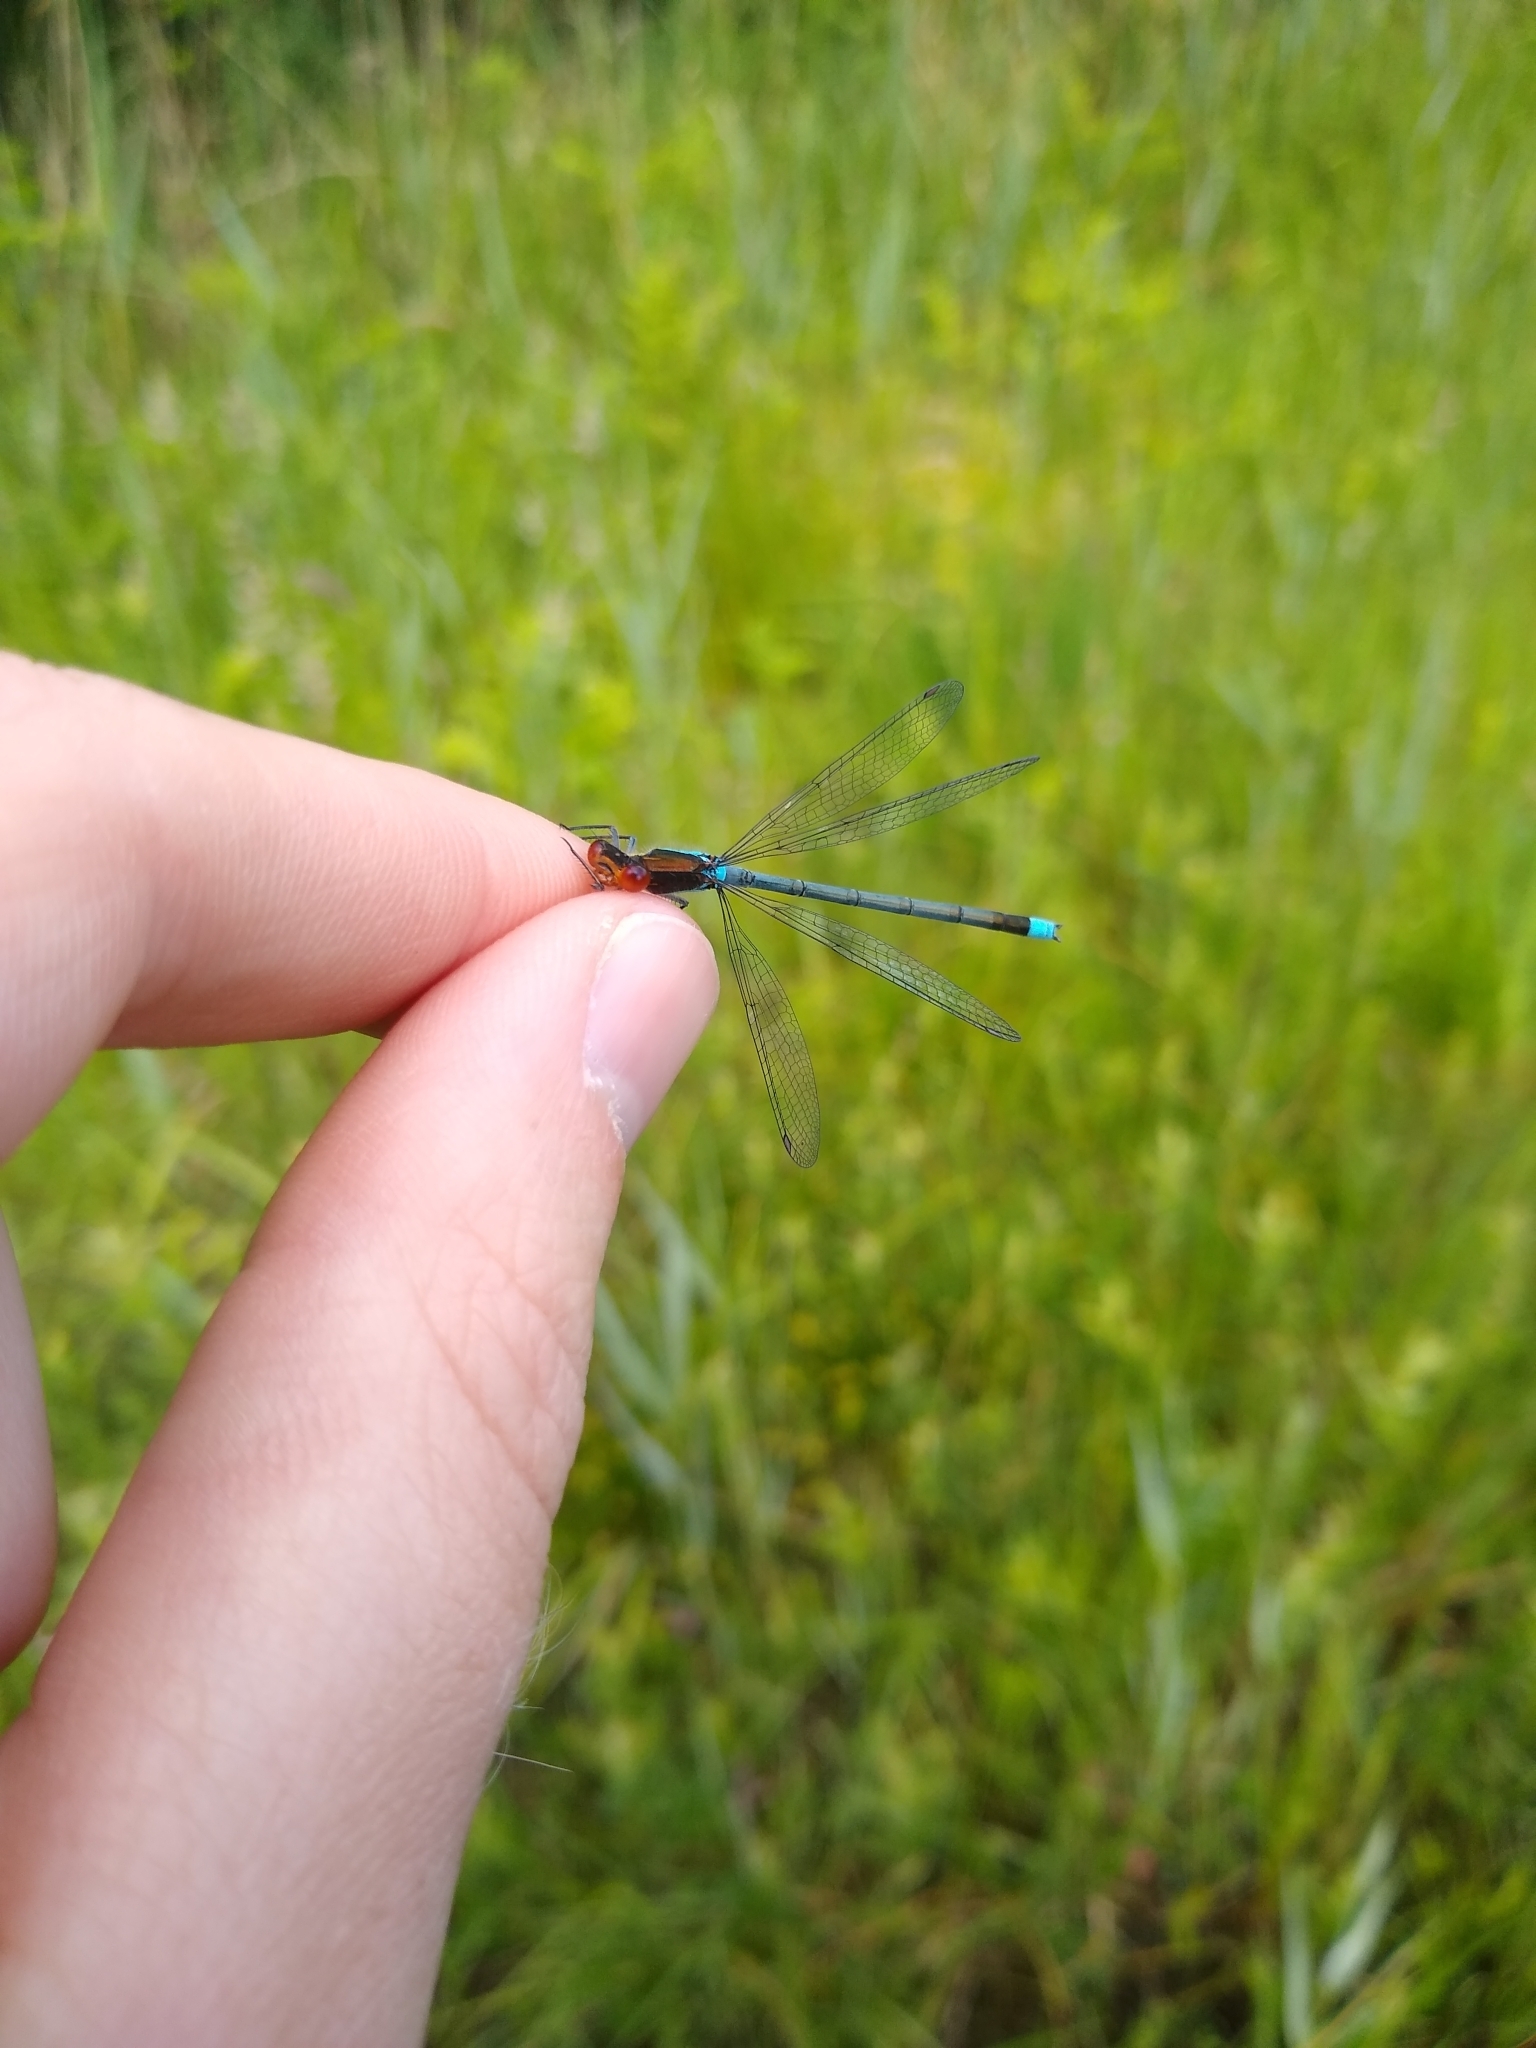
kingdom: Animalia
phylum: Arthropoda
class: Insecta
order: Odonata
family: Coenagrionidae
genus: Erythromma
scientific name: Erythromma najas
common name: Red-eyed damselfly
